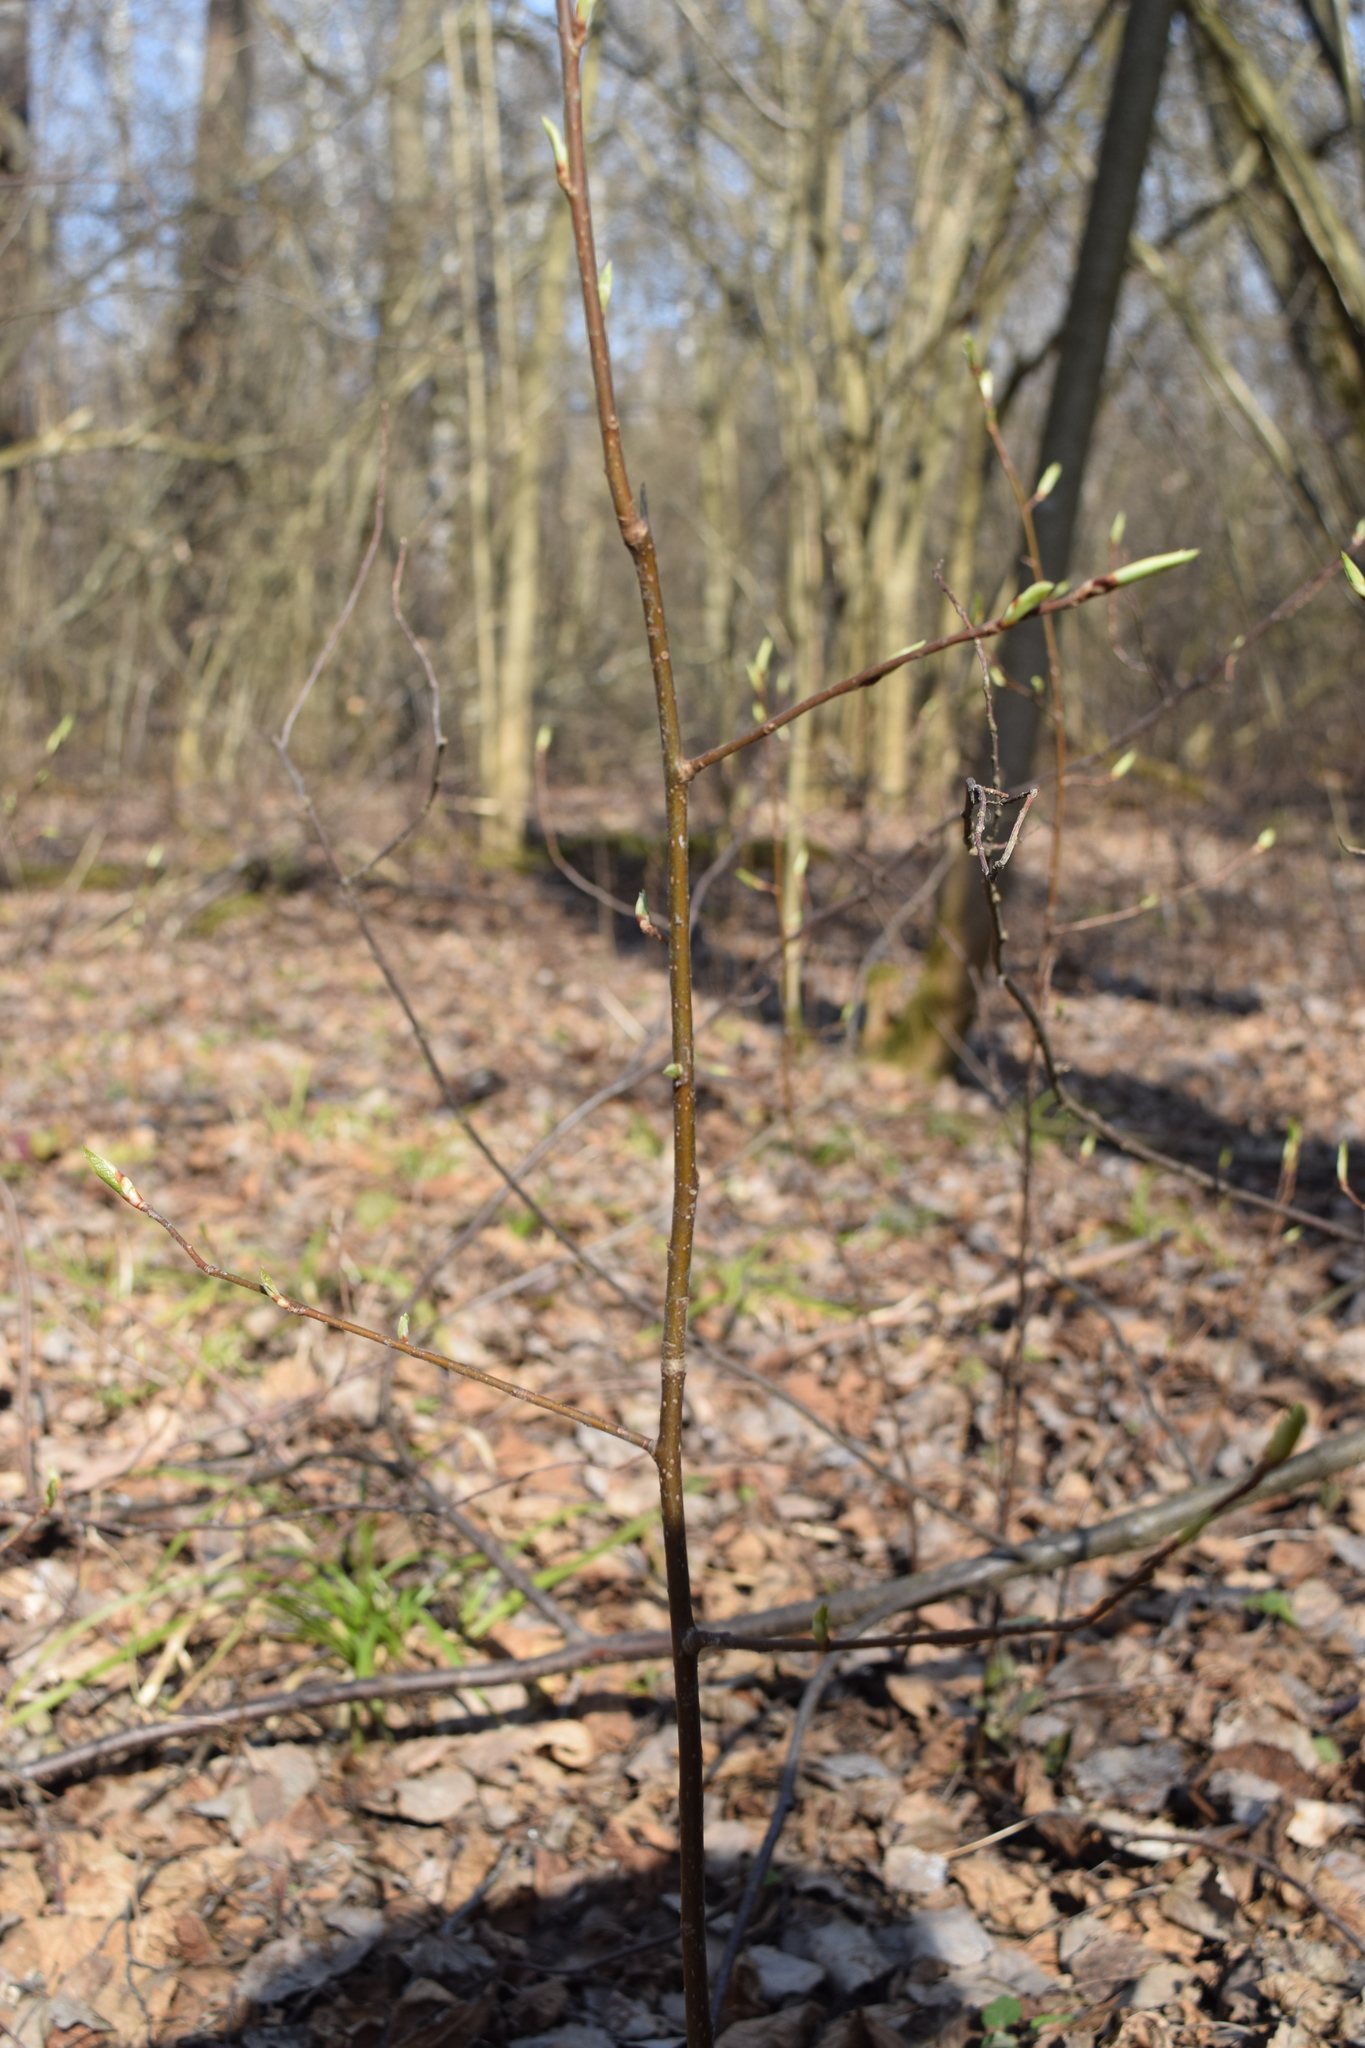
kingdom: Plantae
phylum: Tracheophyta
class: Magnoliopsida
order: Rosales
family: Rosaceae
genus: Prunus
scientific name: Prunus padus
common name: Bird cherry
